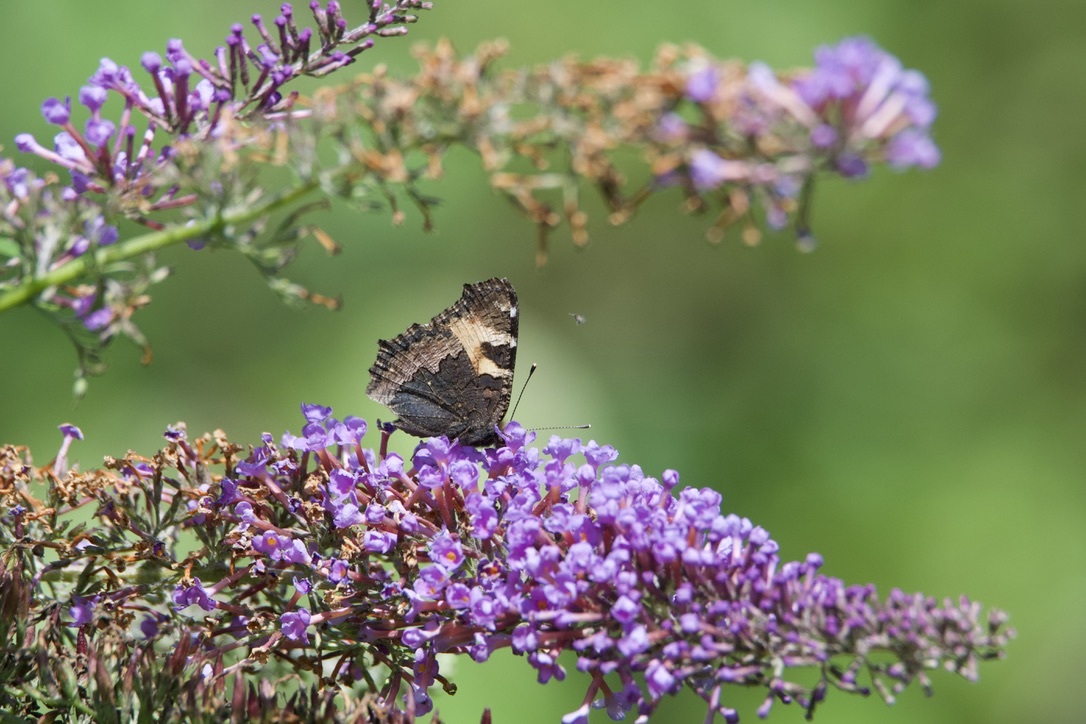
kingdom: Animalia
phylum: Arthropoda
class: Insecta
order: Lepidoptera
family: Nymphalidae
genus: Aglais
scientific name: Aglais urticae
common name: Small tortoiseshell
